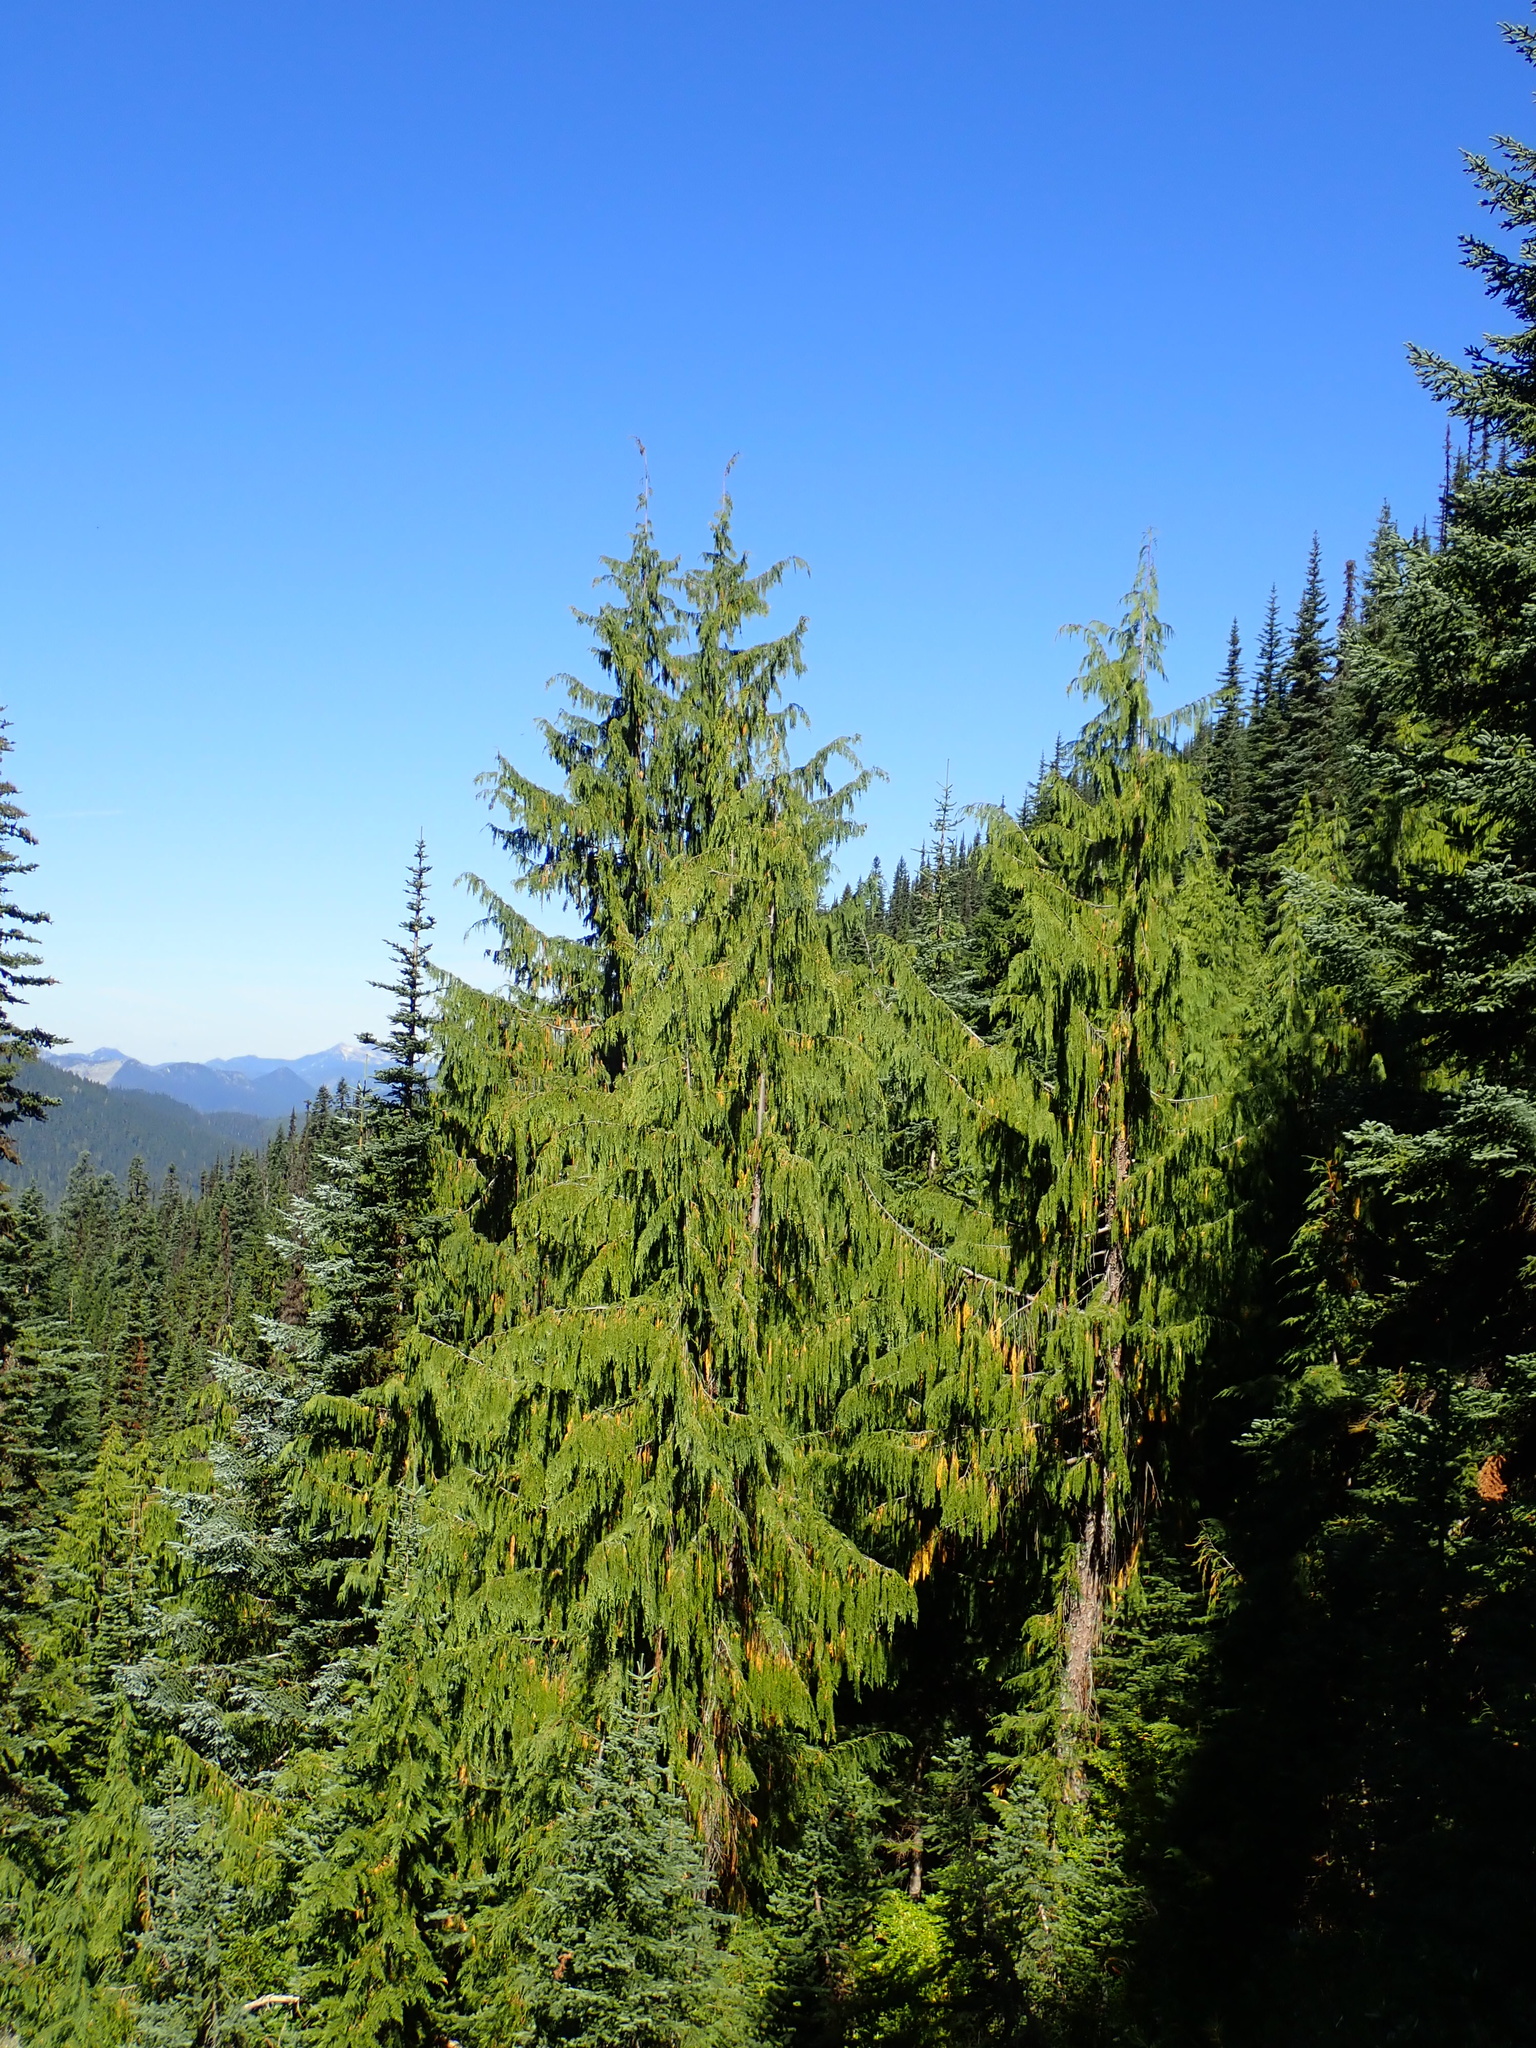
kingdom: Plantae
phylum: Tracheophyta
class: Pinopsida
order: Pinales
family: Cupressaceae
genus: Xanthocyparis
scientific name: Xanthocyparis nootkatensis
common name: Nootka cypress
